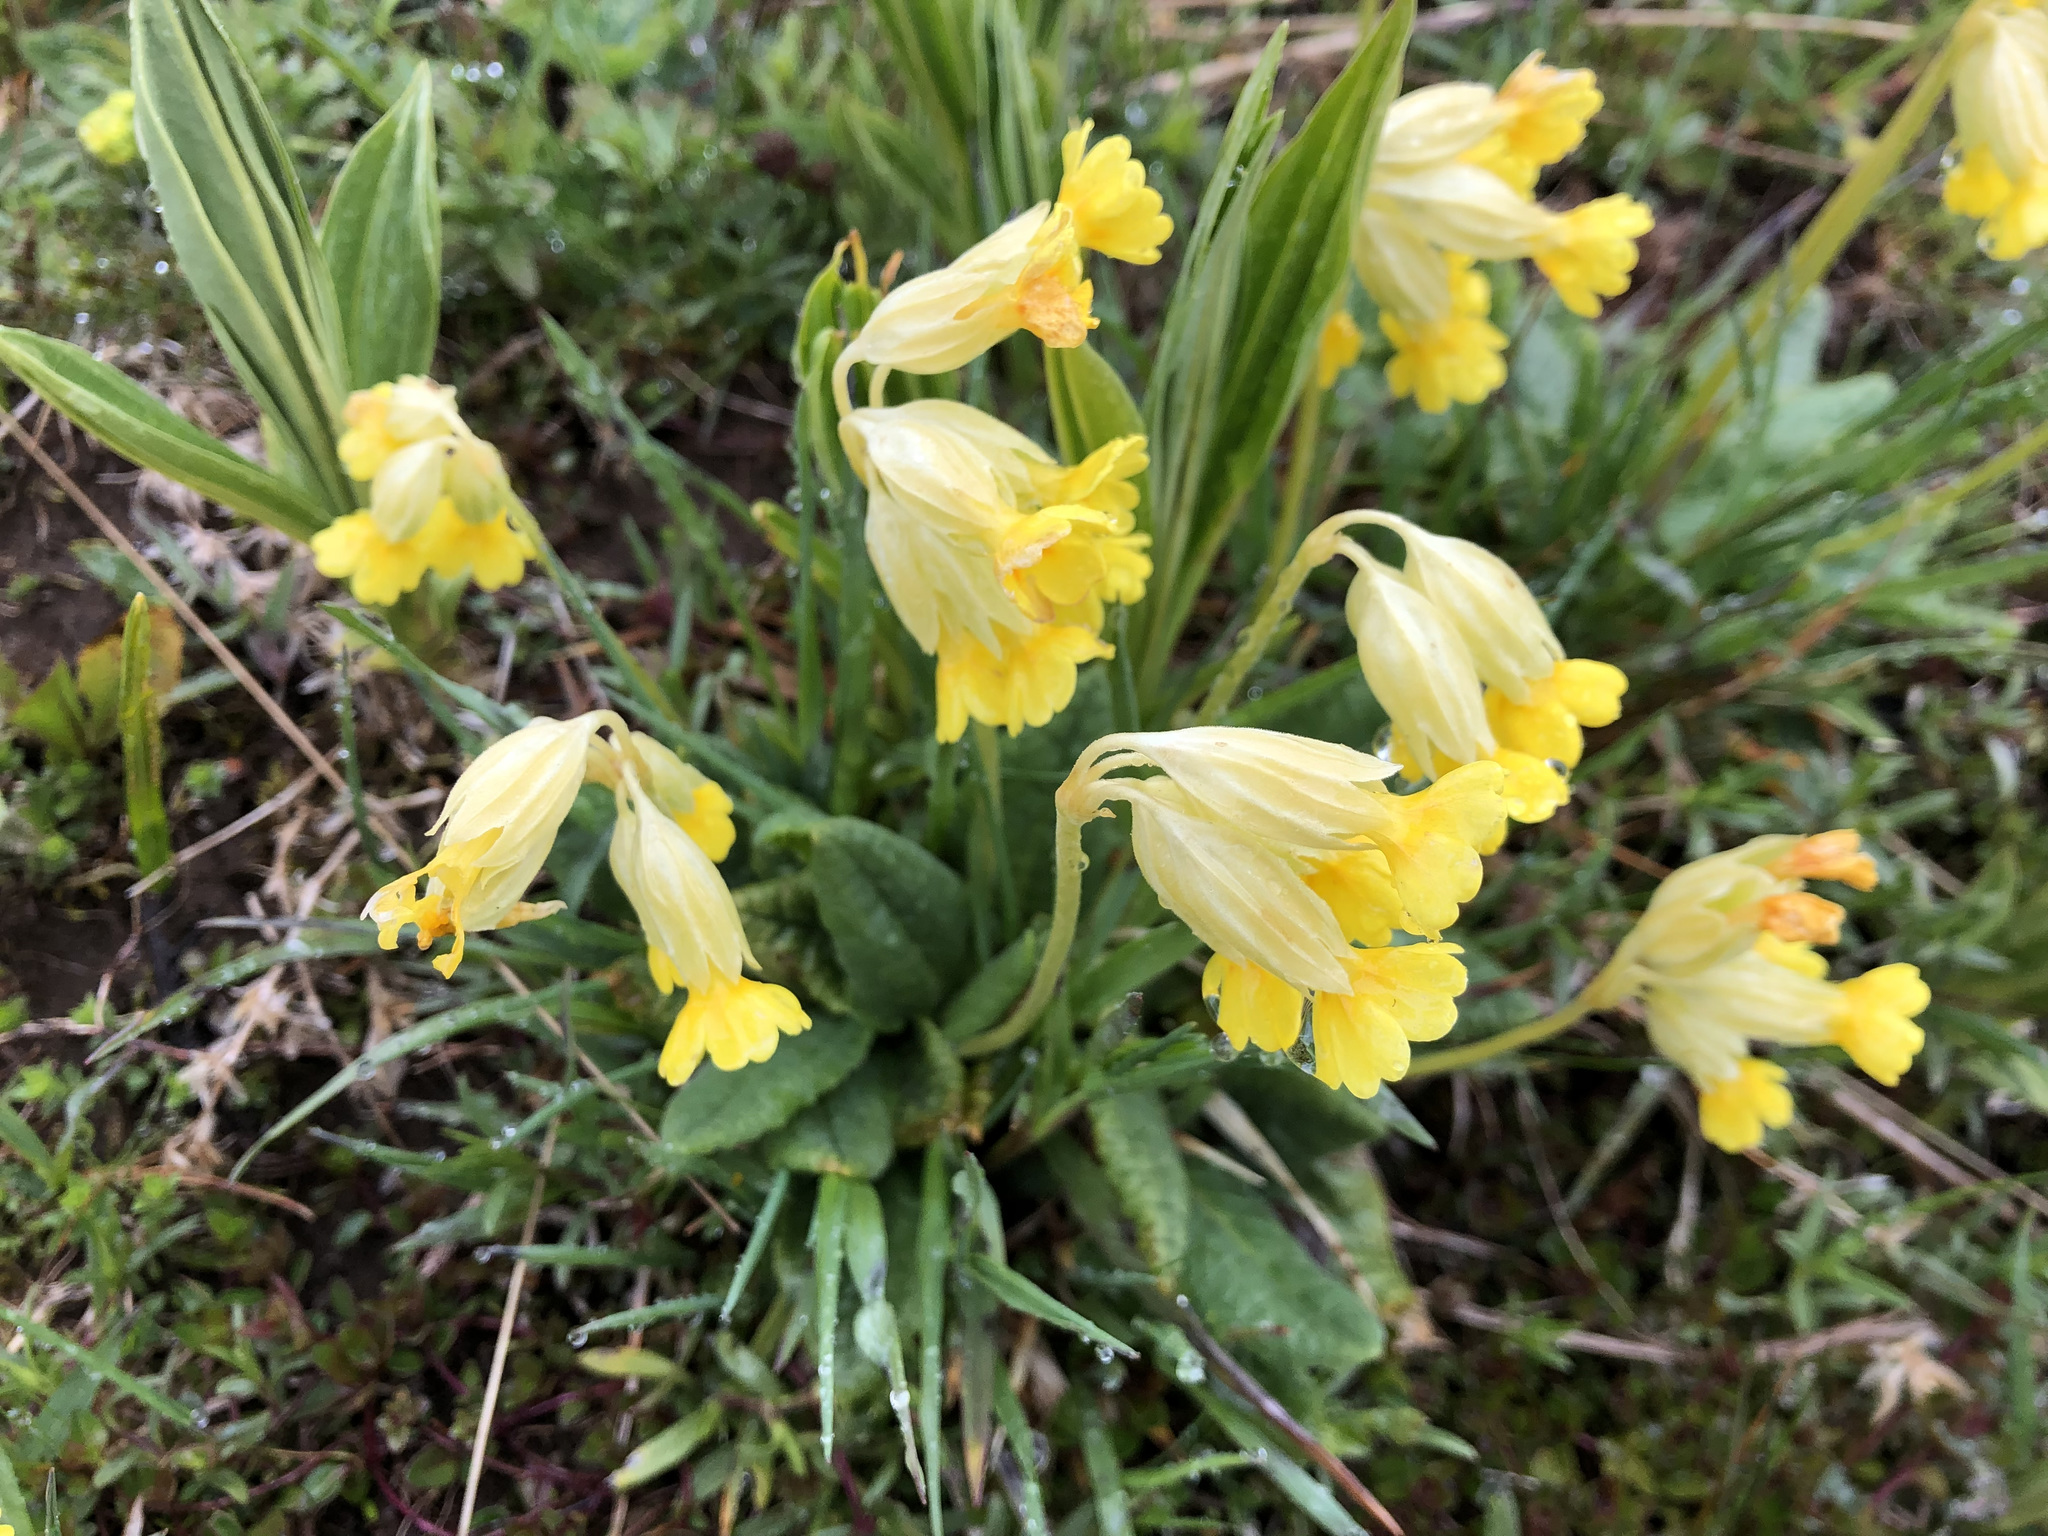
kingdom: Plantae
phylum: Tracheophyta
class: Magnoliopsida
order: Ericales
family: Primulaceae
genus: Primula
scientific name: Primula veris
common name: Cowslip
